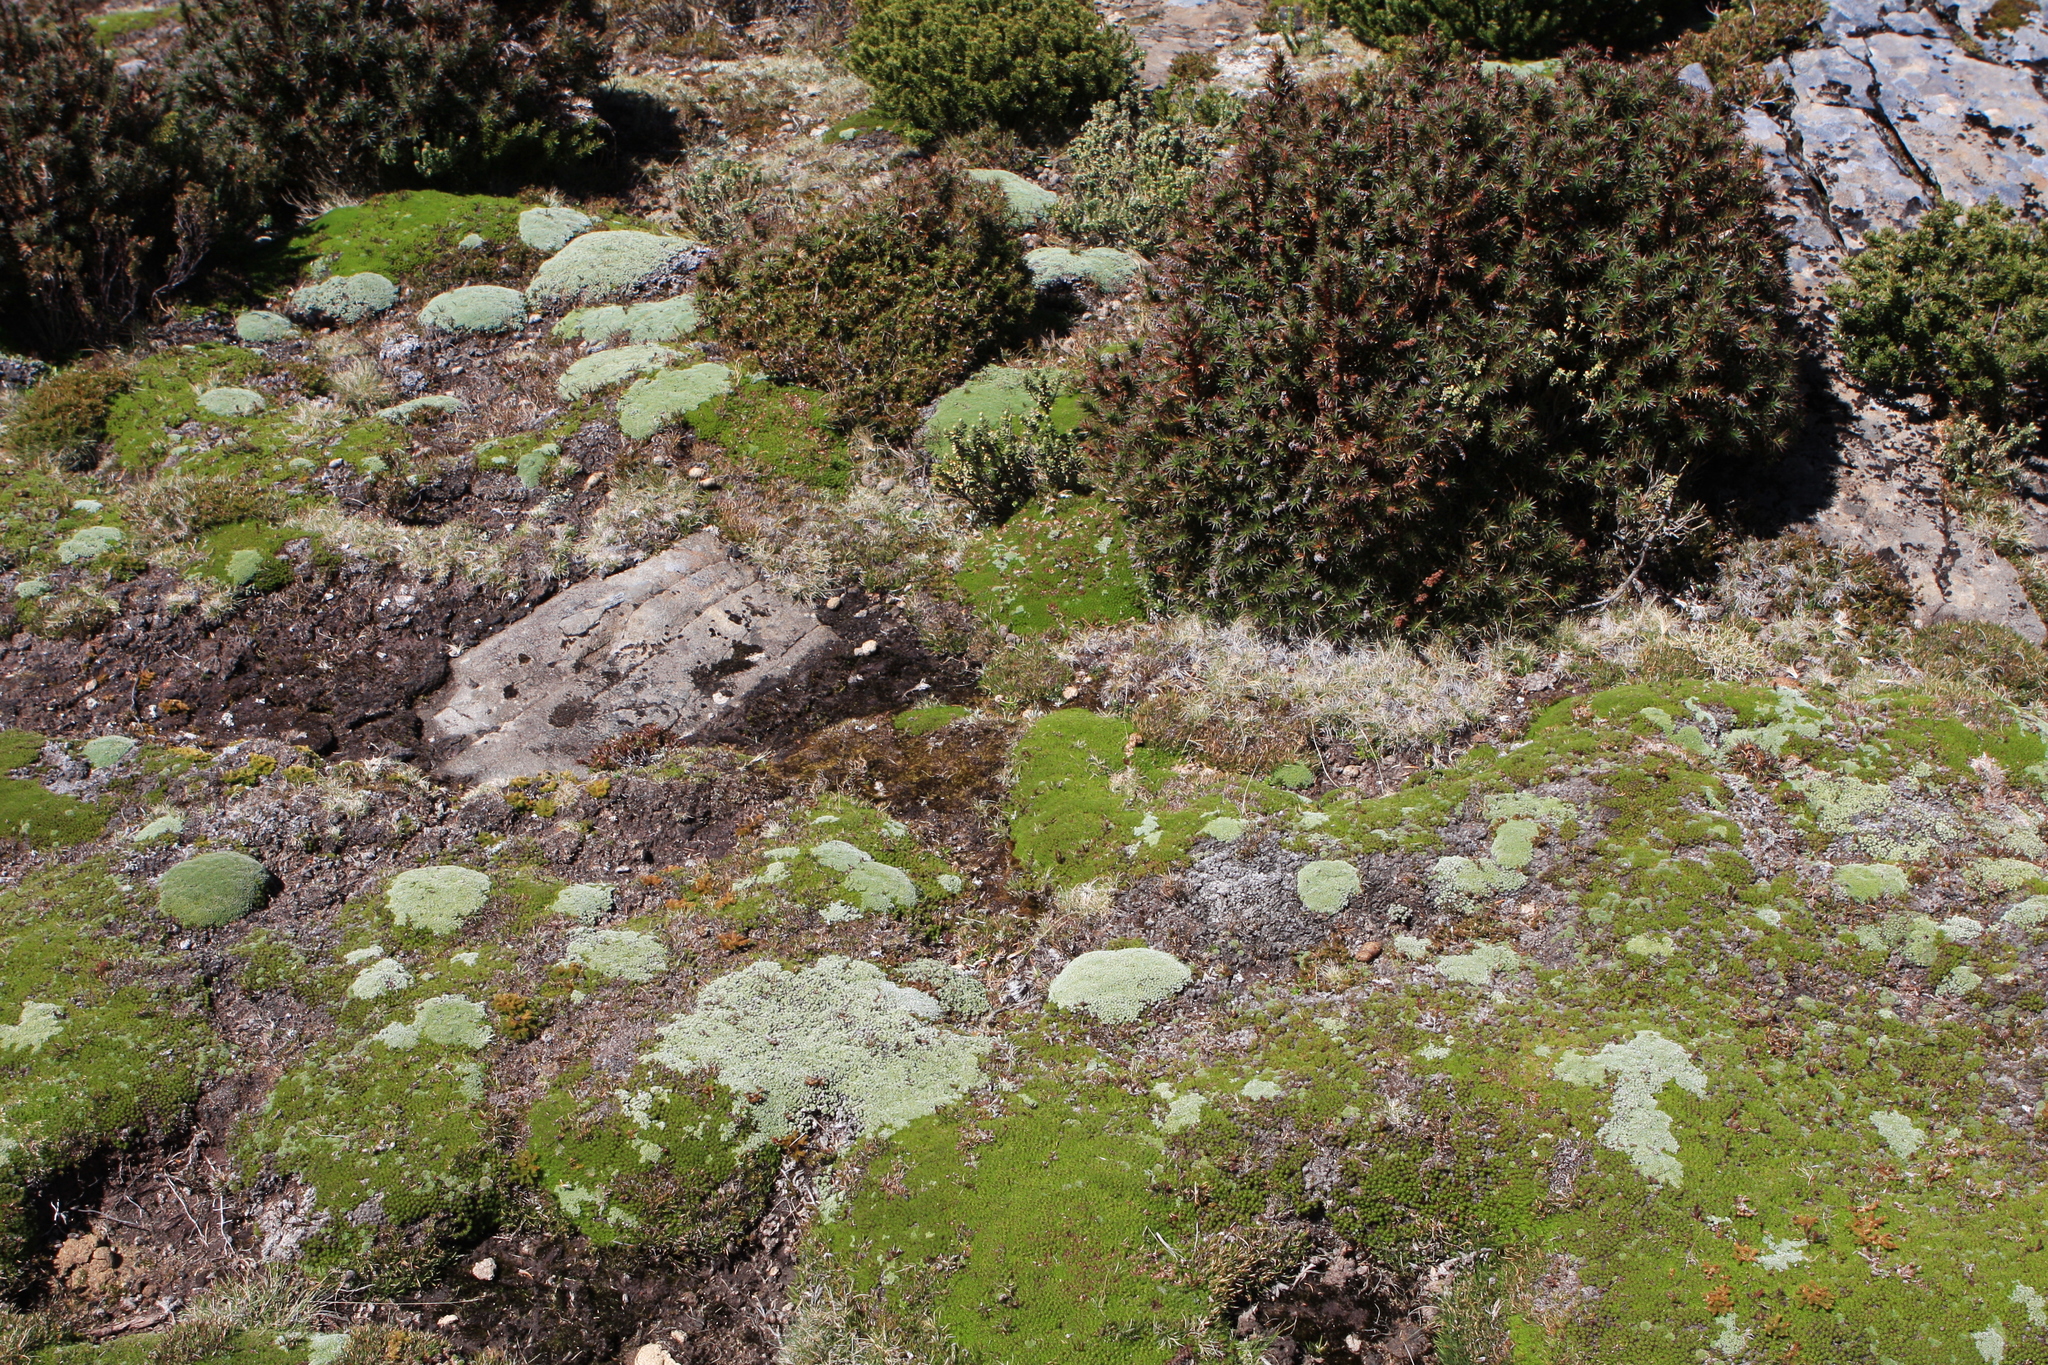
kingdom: Plantae
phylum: Tracheophyta
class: Magnoliopsida
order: Asterales
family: Asteraceae
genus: Pterygopappus
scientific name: Pterygopappus lawrencii
